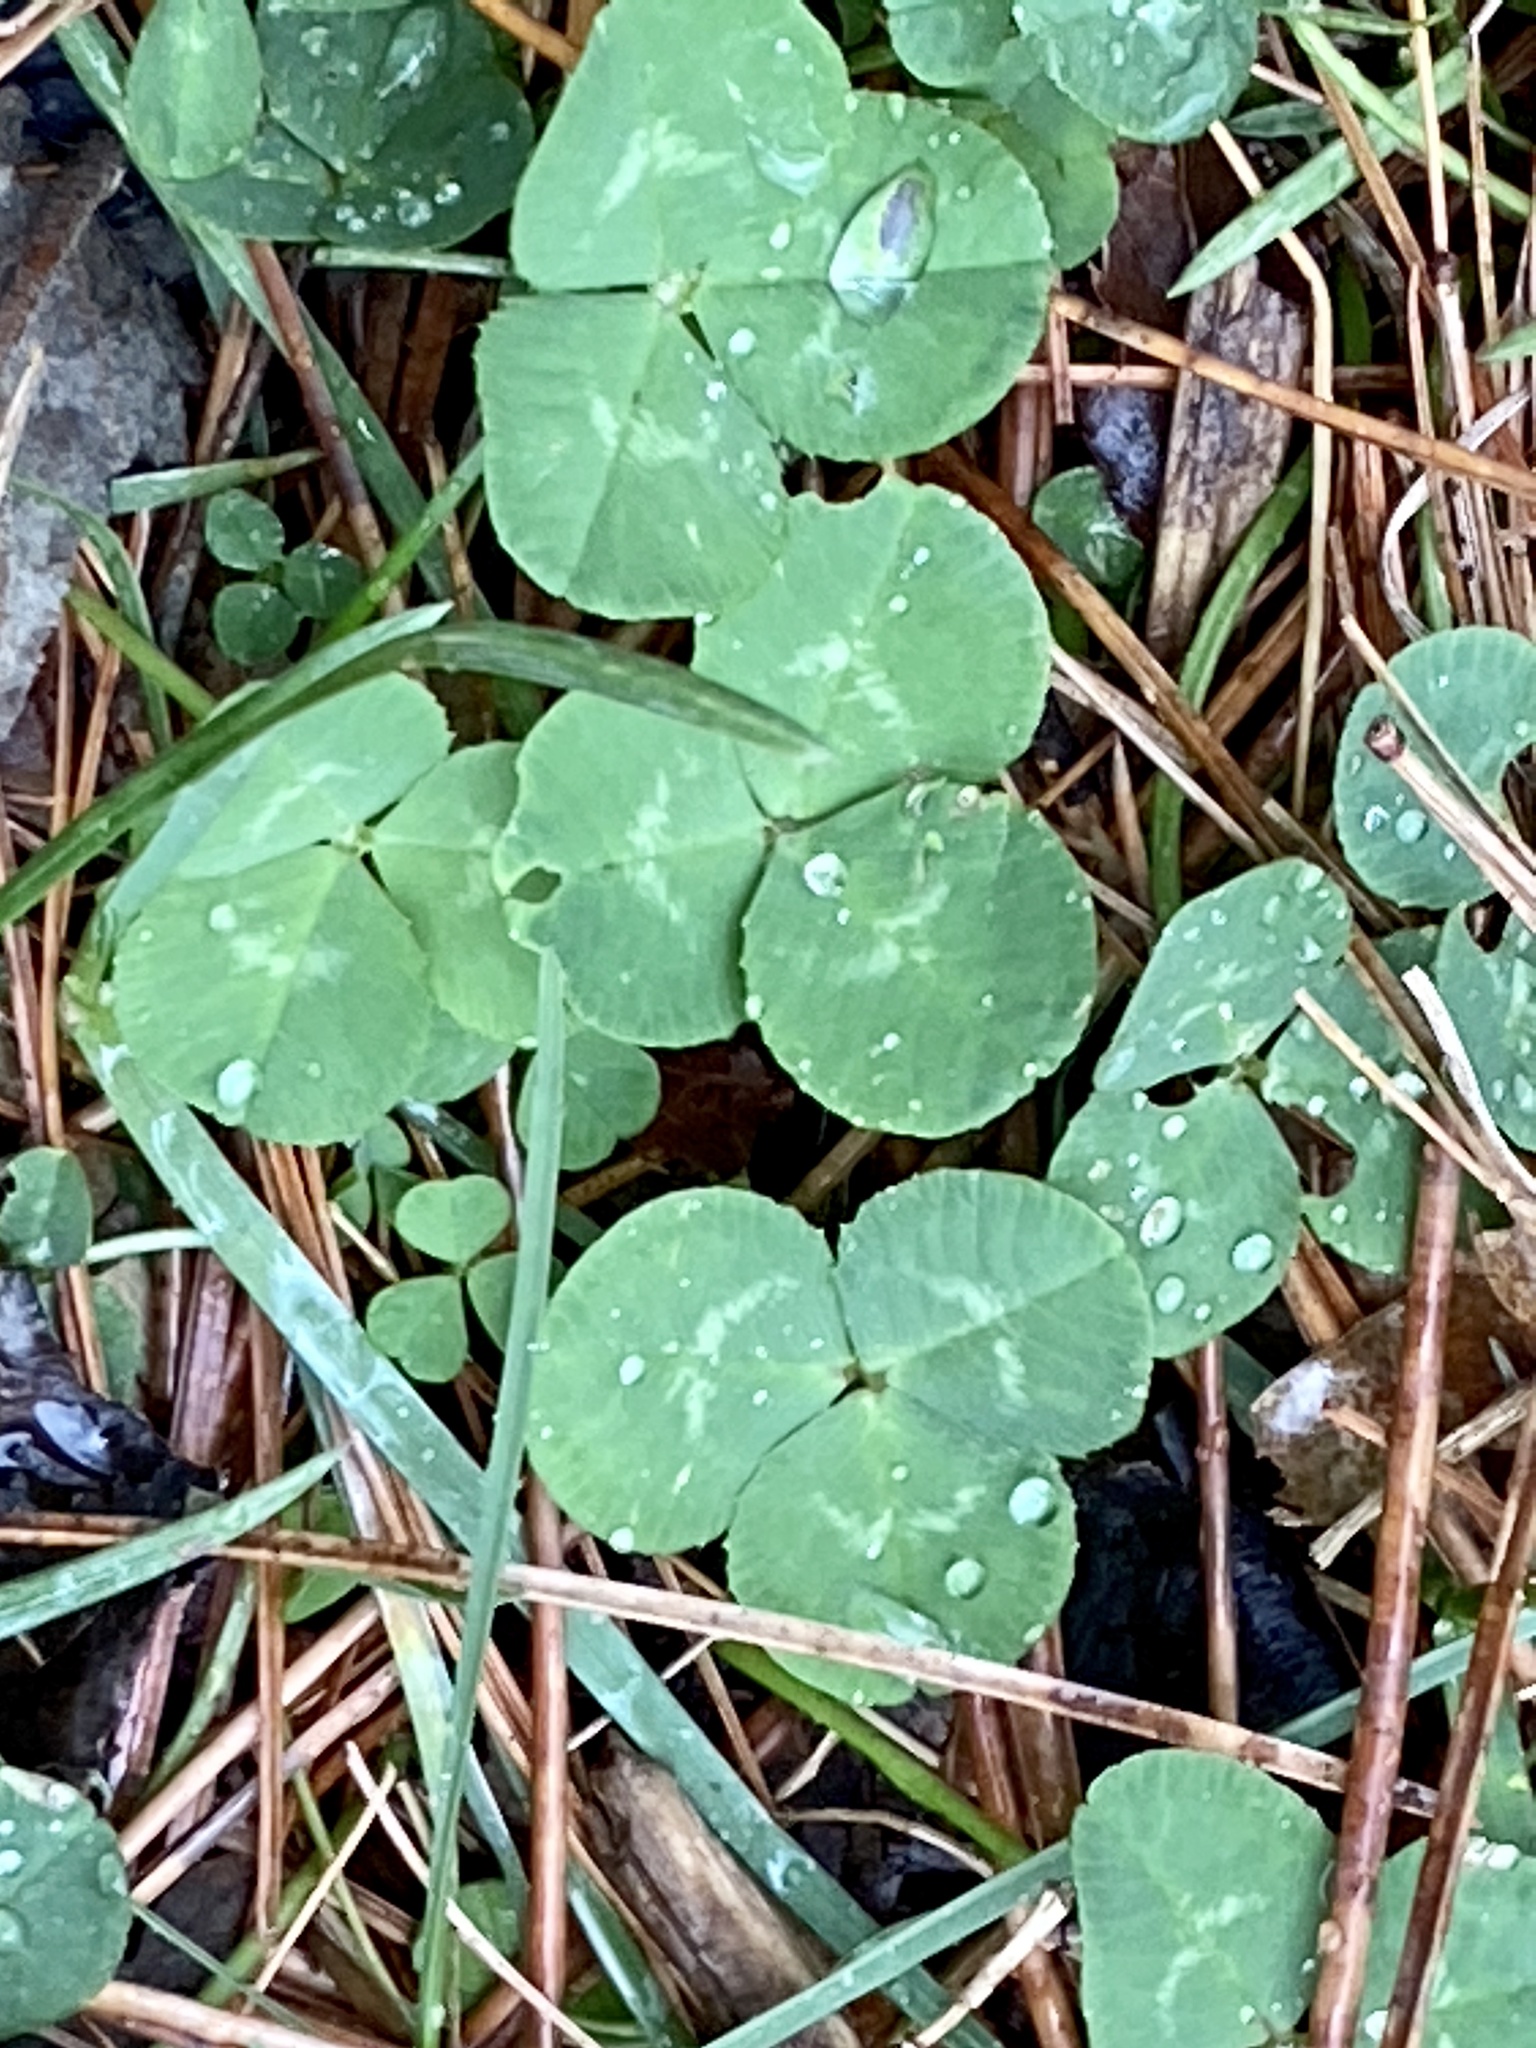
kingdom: Plantae
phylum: Tracheophyta
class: Magnoliopsida
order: Fabales
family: Fabaceae
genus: Trifolium
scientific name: Trifolium repens
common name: White clover
